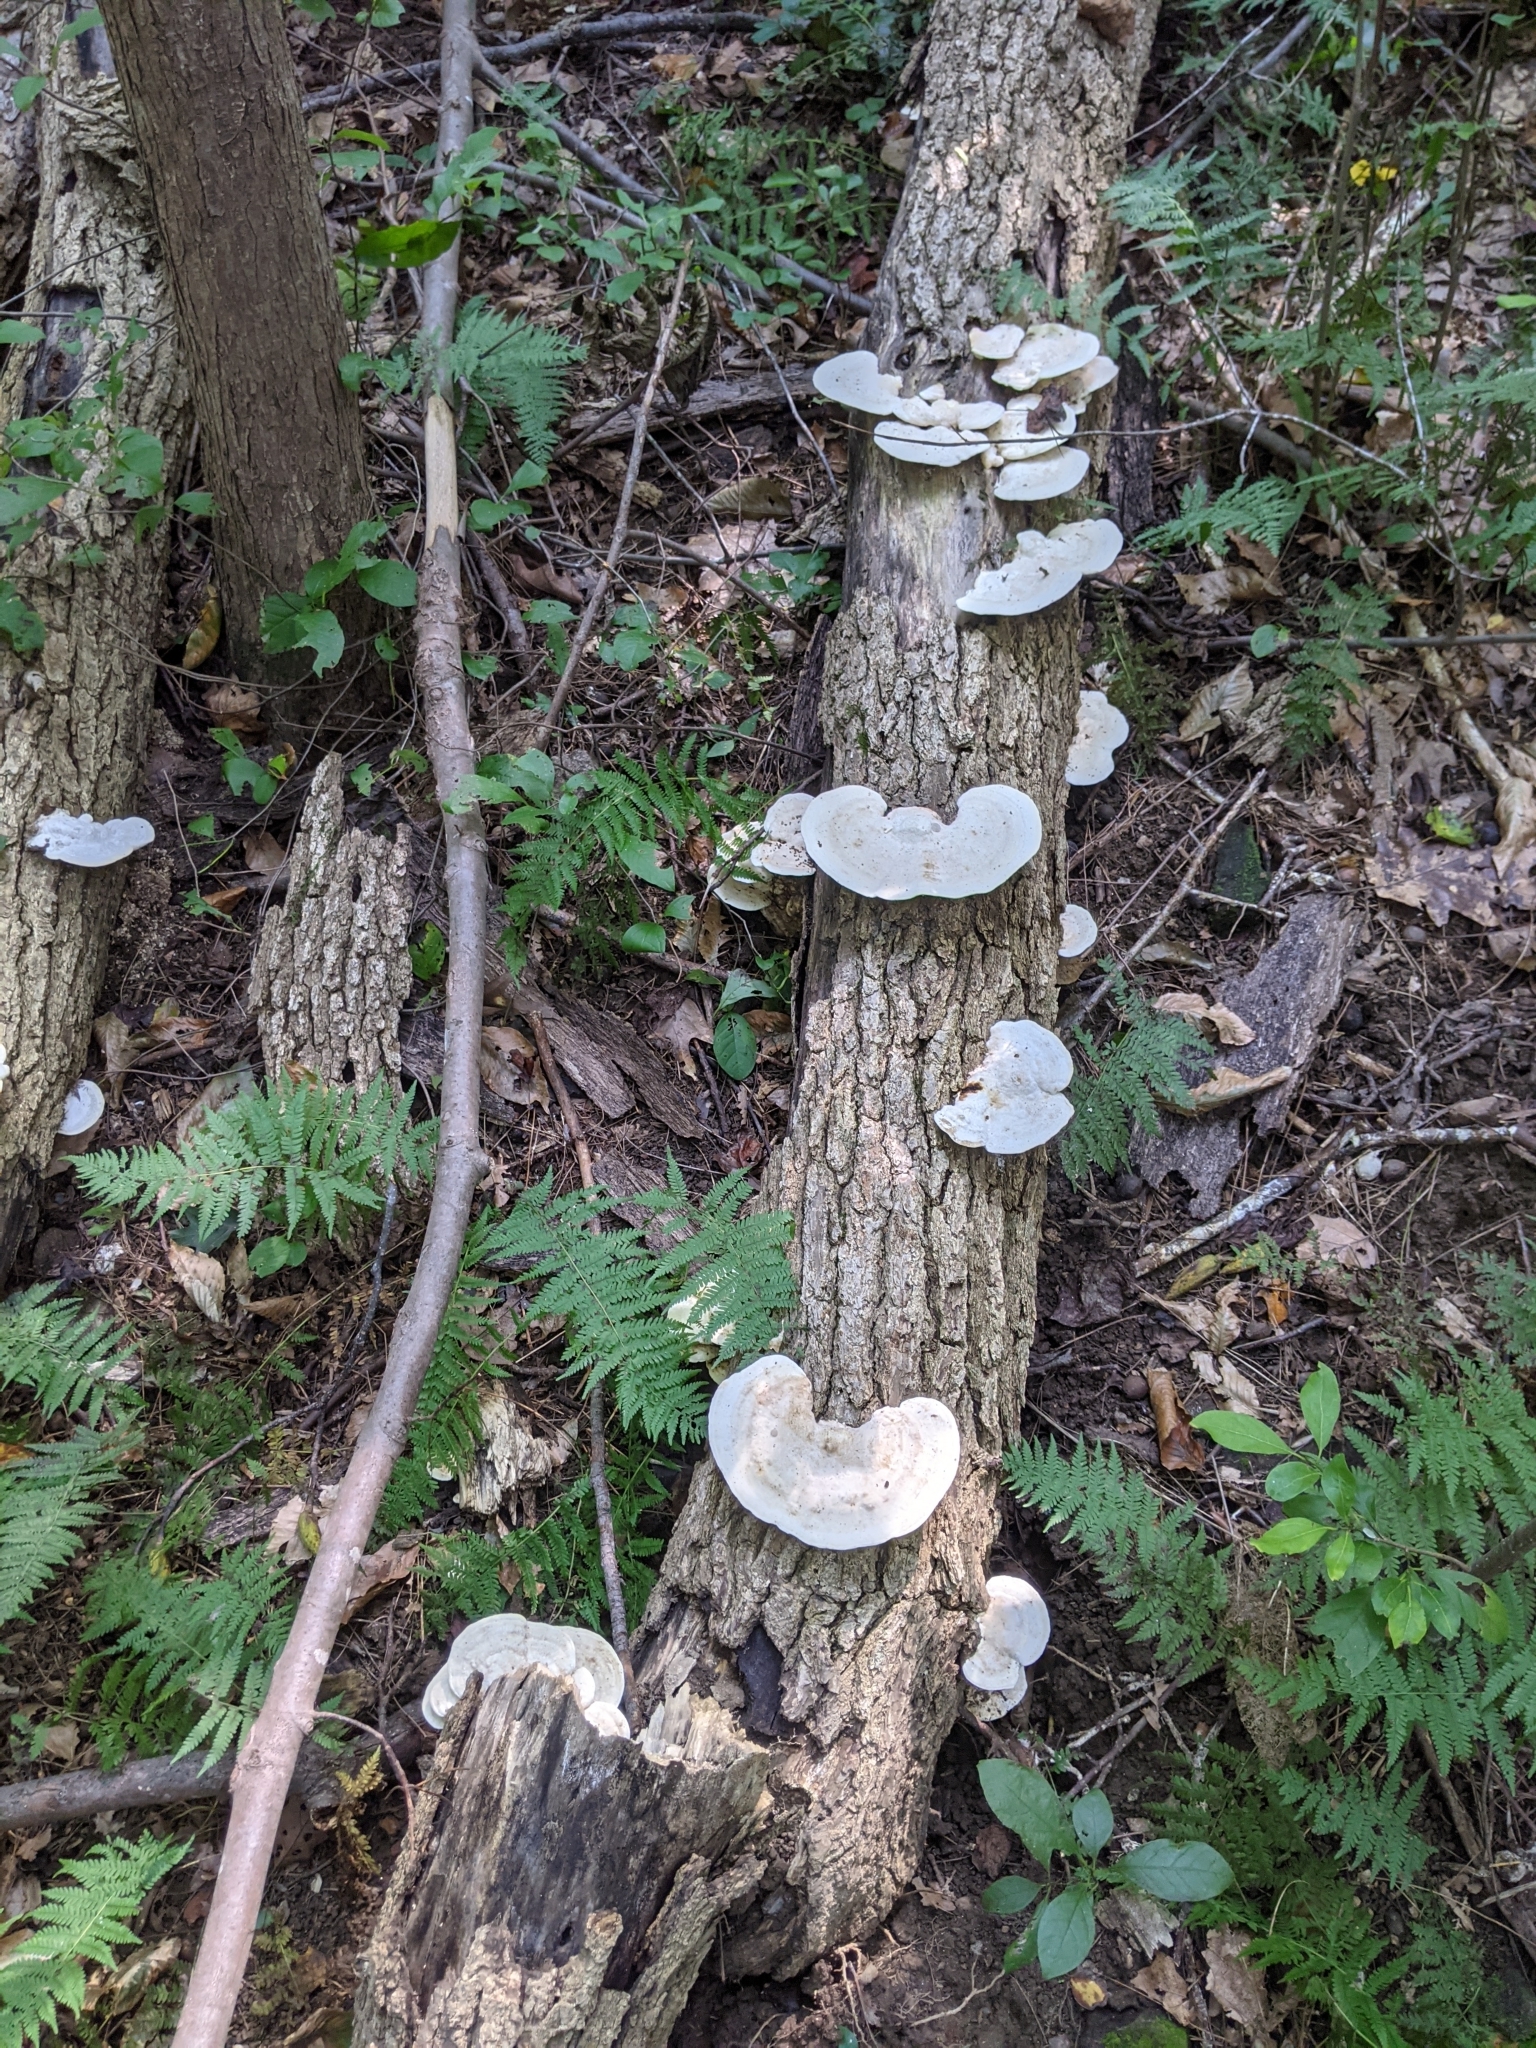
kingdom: Fungi
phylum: Basidiomycota
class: Agaricomycetes
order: Polyporales
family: Polyporaceae
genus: Trametes
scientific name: Trametes gibbosa
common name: Lumpy bracket
